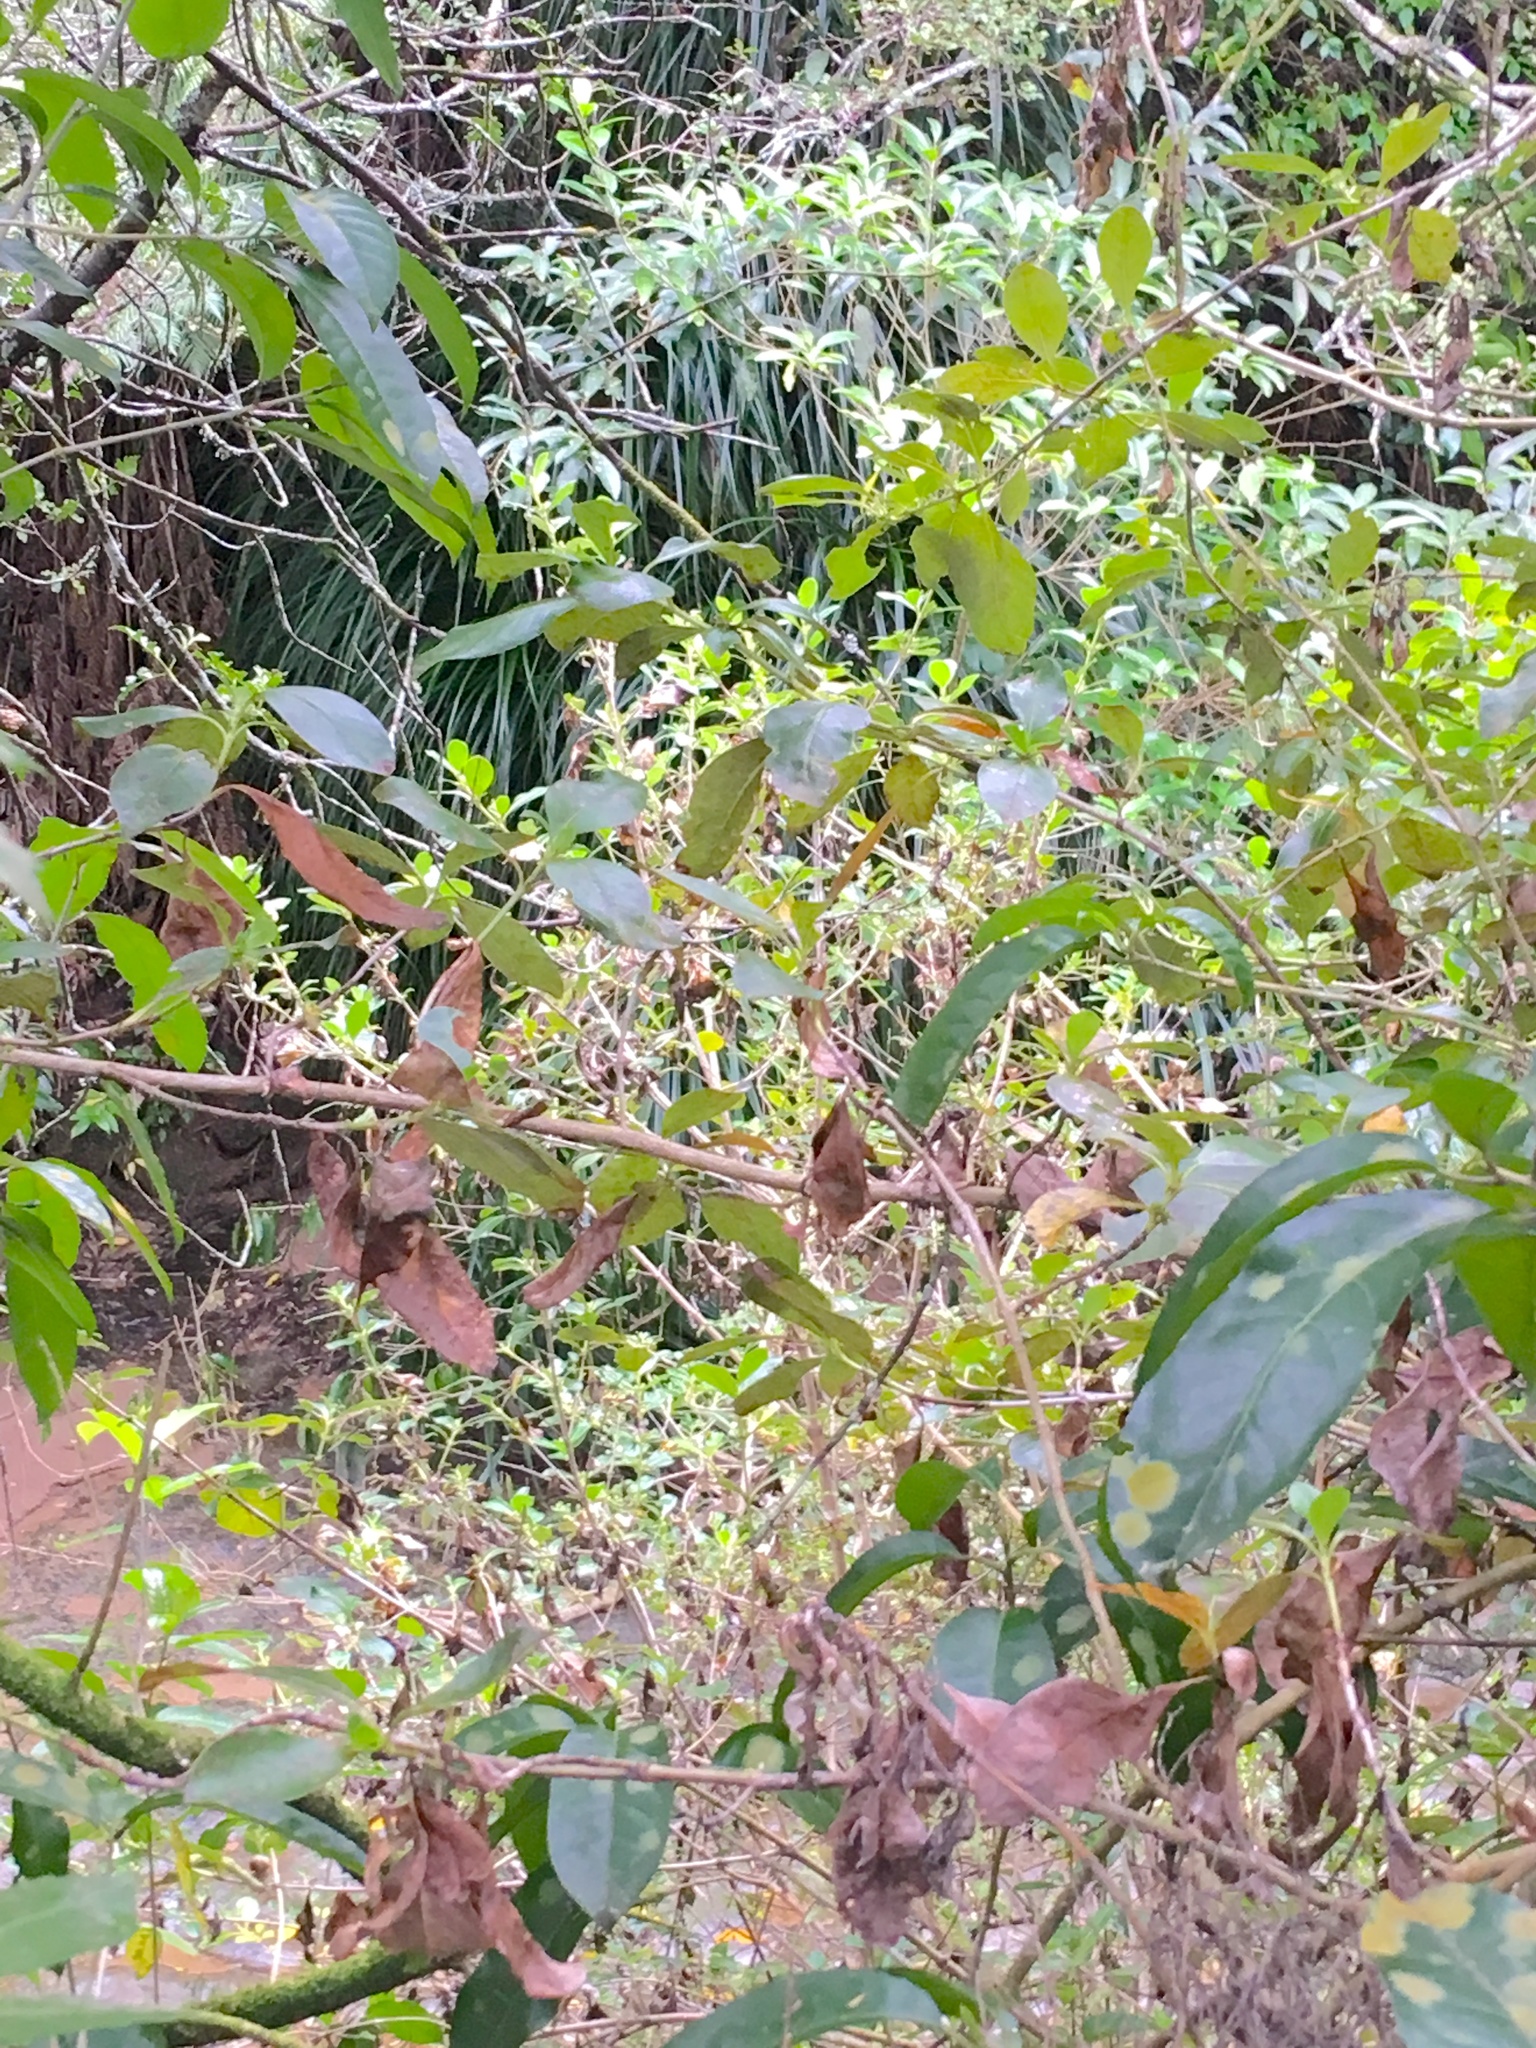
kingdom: Plantae
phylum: Tracheophyta
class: Magnoliopsida
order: Gentianales
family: Rubiaceae
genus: Coprosma
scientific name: Coprosma robusta
